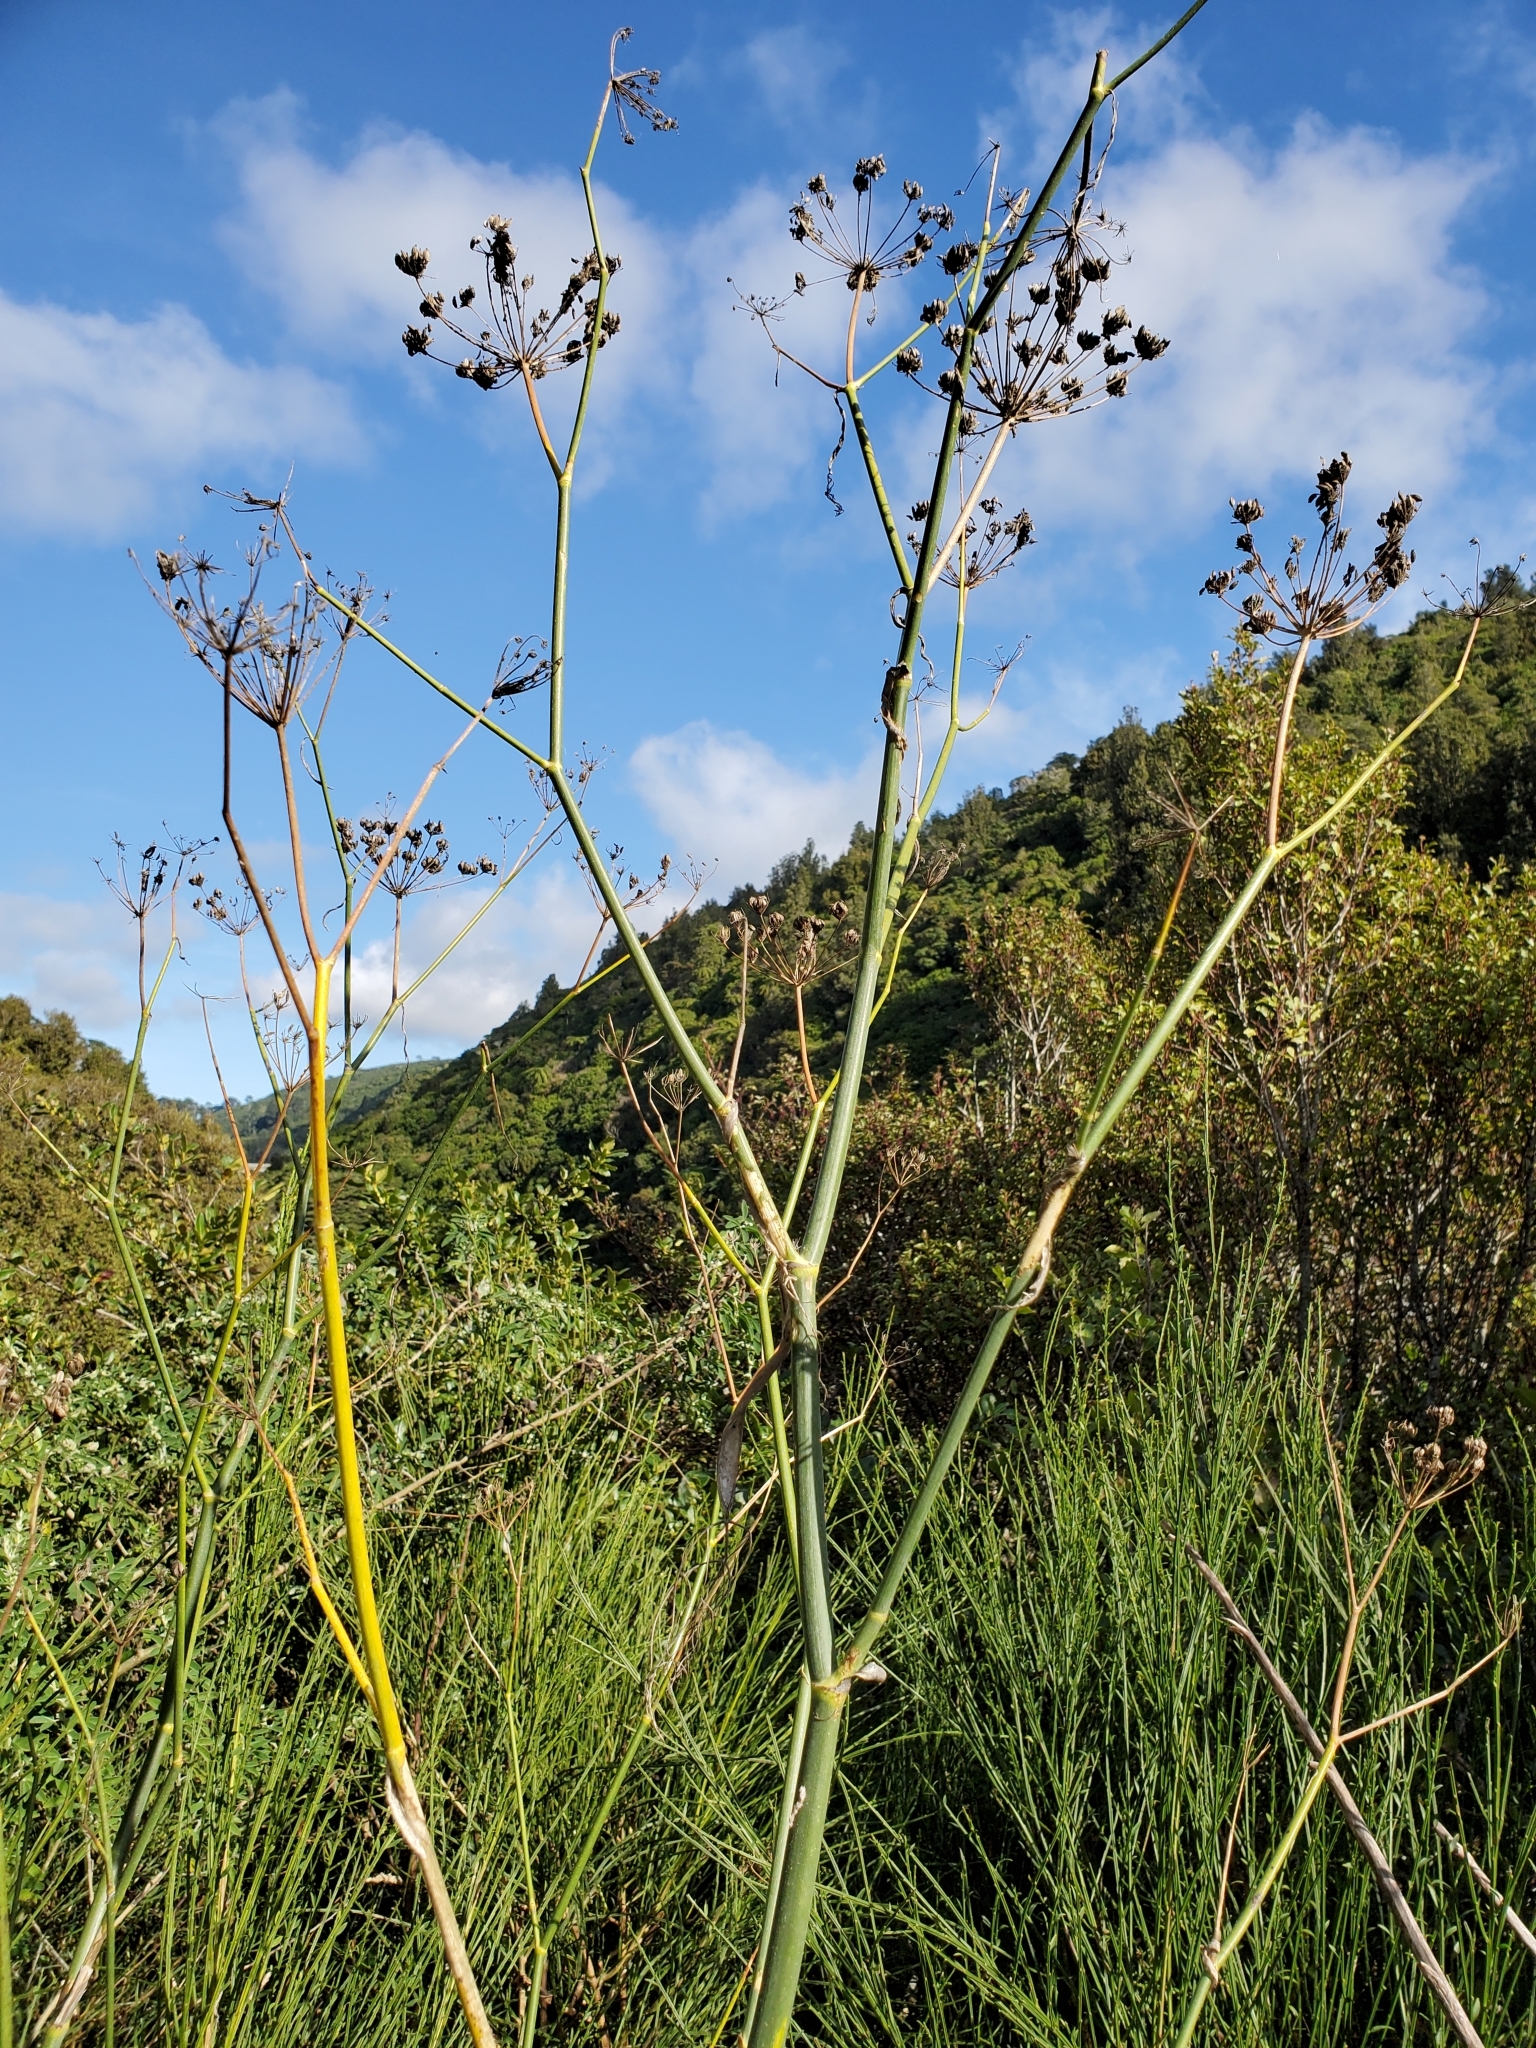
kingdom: Plantae
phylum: Tracheophyta
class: Magnoliopsida
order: Apiales
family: Apiaceae
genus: Foeniculum
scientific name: Foeniculum vulgare
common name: Fennel
